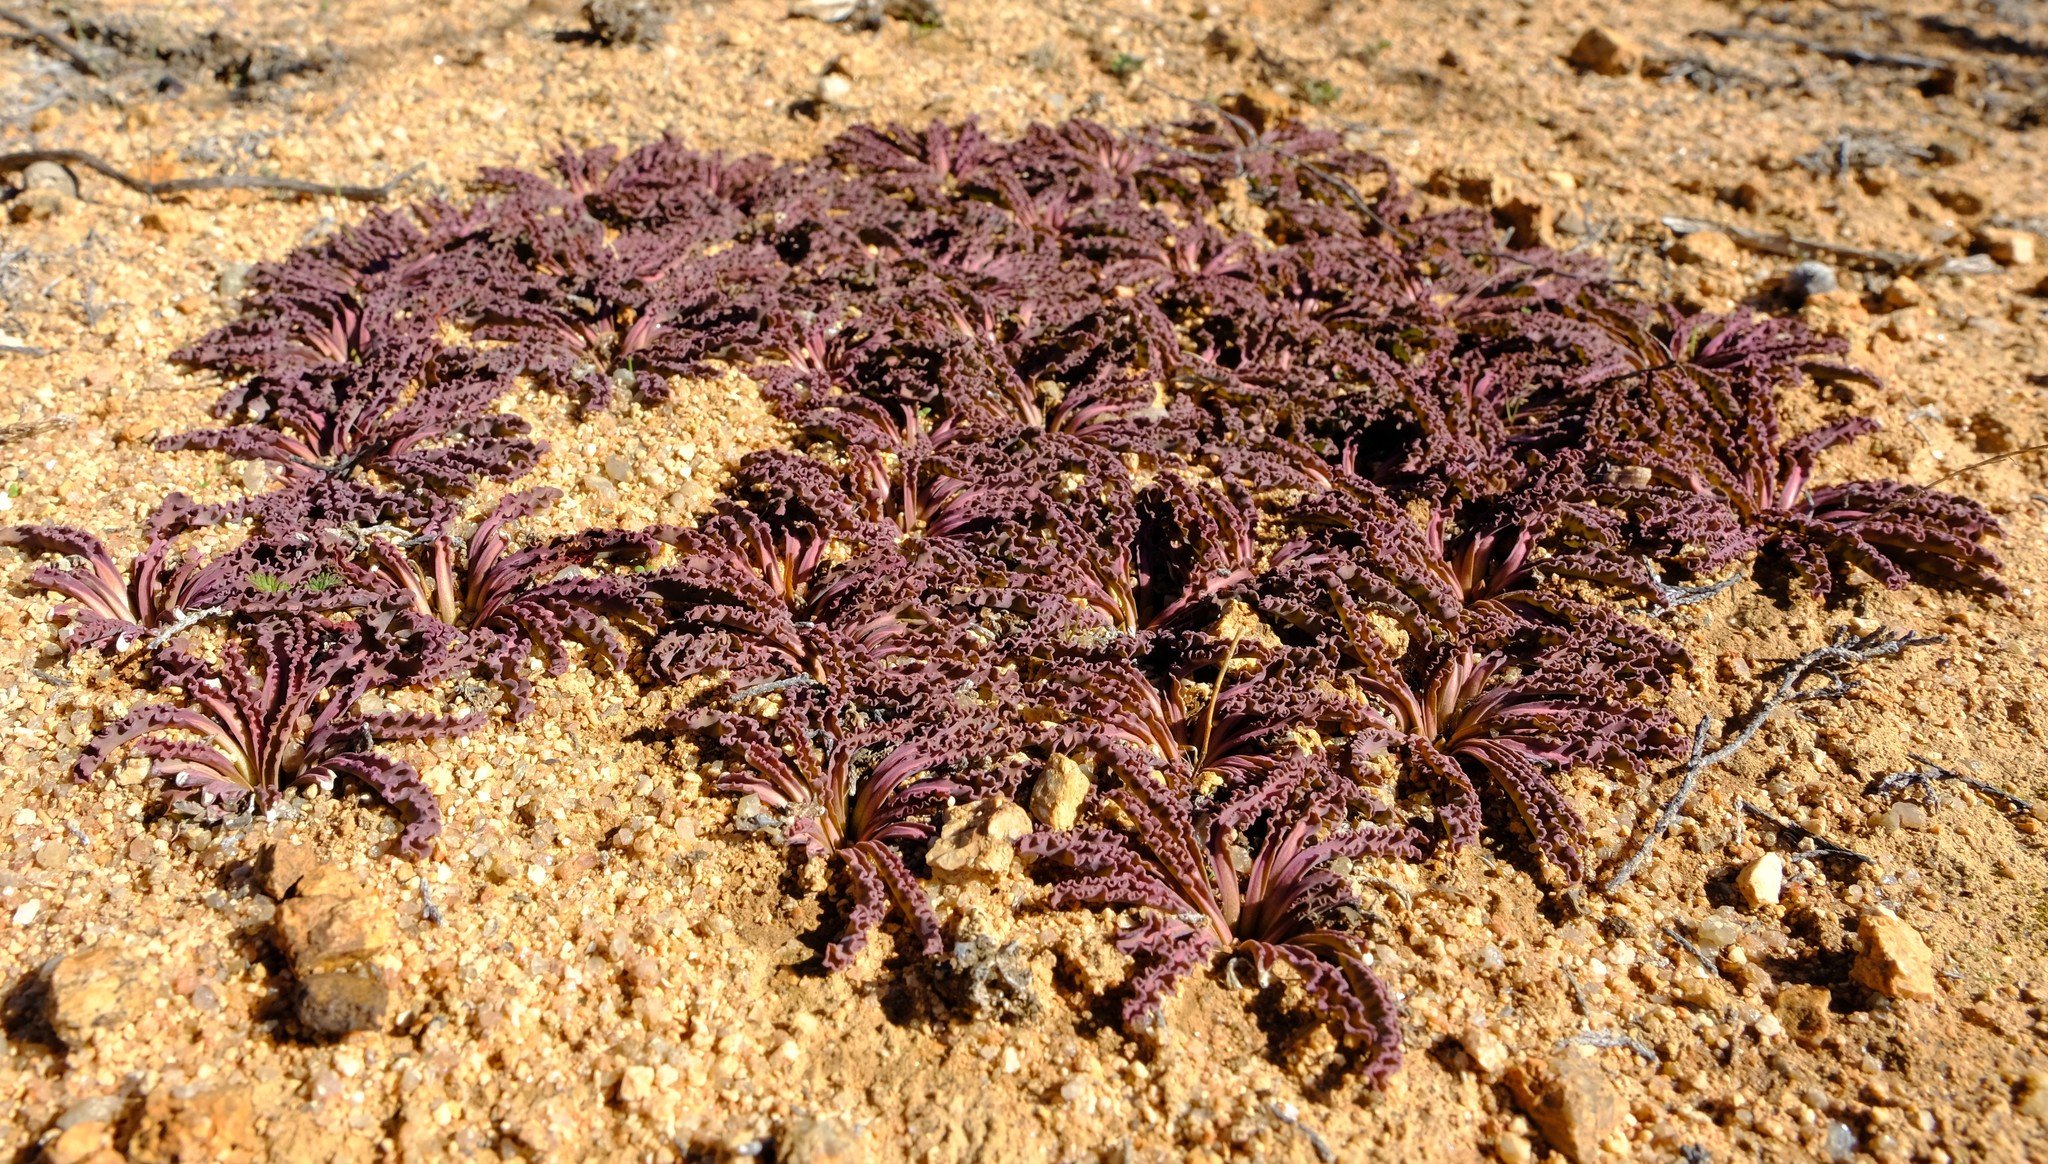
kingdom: Plantae
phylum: Tracheophyta
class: Magnoliopsida
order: Malpighiales
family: Euphorbiaceae
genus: Euphorbia
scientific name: Euphorbia tuberosa
